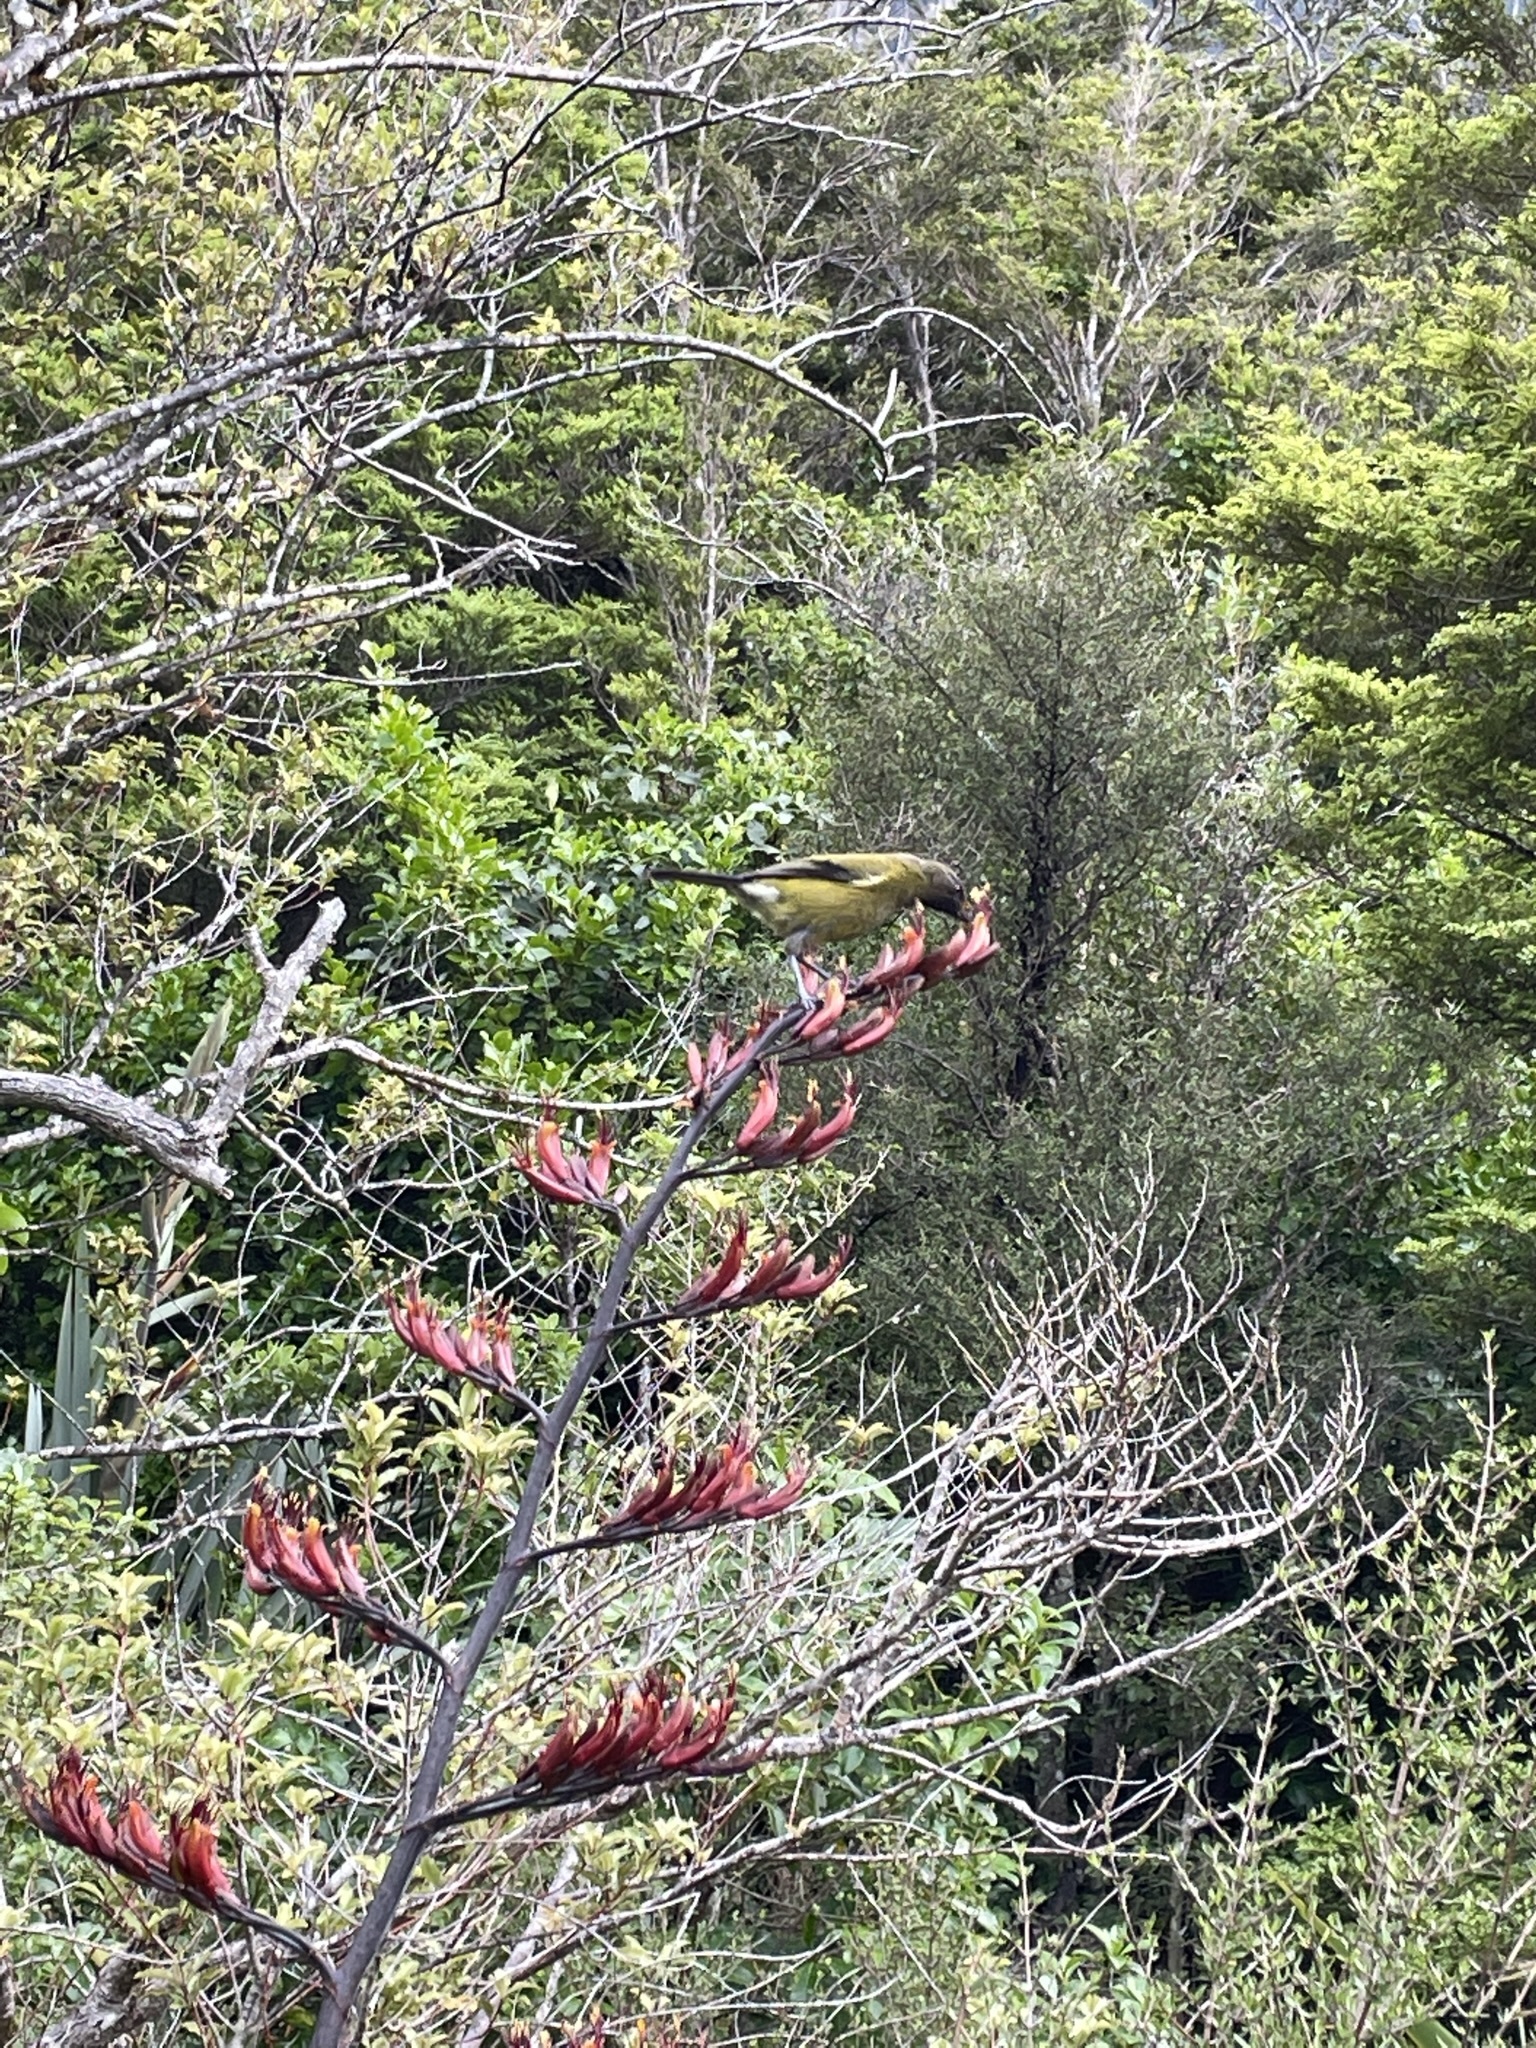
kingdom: Animalia
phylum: Chordata
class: Aves
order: Passeriformes
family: Meliphagidae
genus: Anthornis
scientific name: Anthornis melanura
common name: New zealand bellbird
